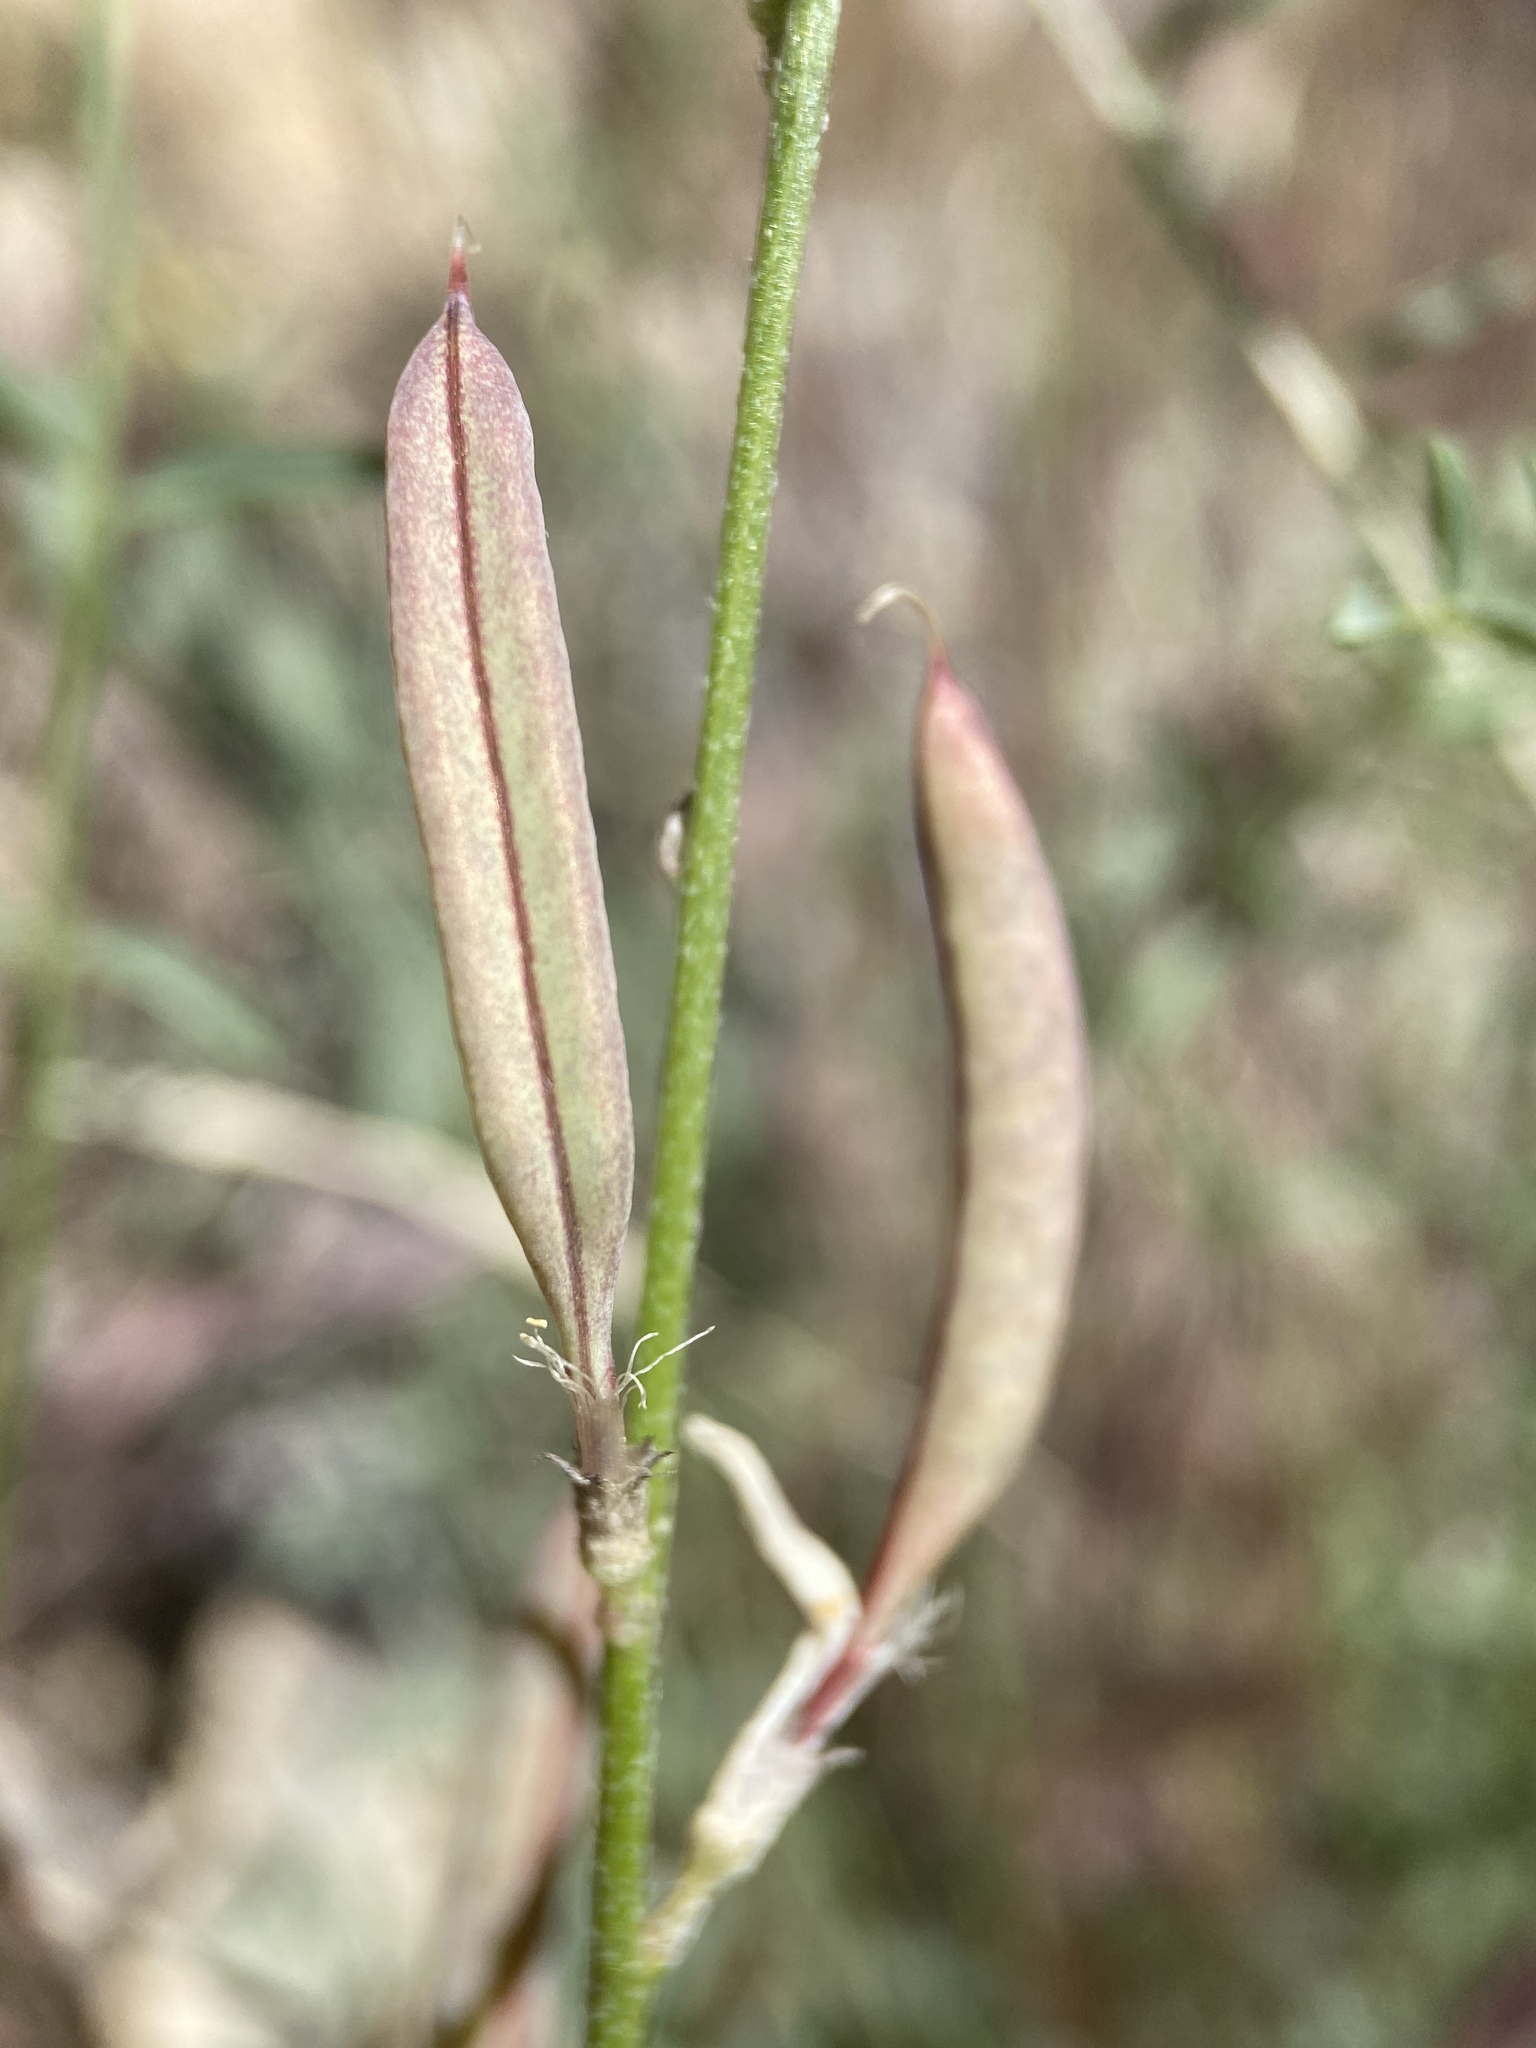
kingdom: Plantae
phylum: Tracheophyta
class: Magnoliopsida
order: Fabales
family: Fabaceae
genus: Astragalus
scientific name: Astragalus remotus
